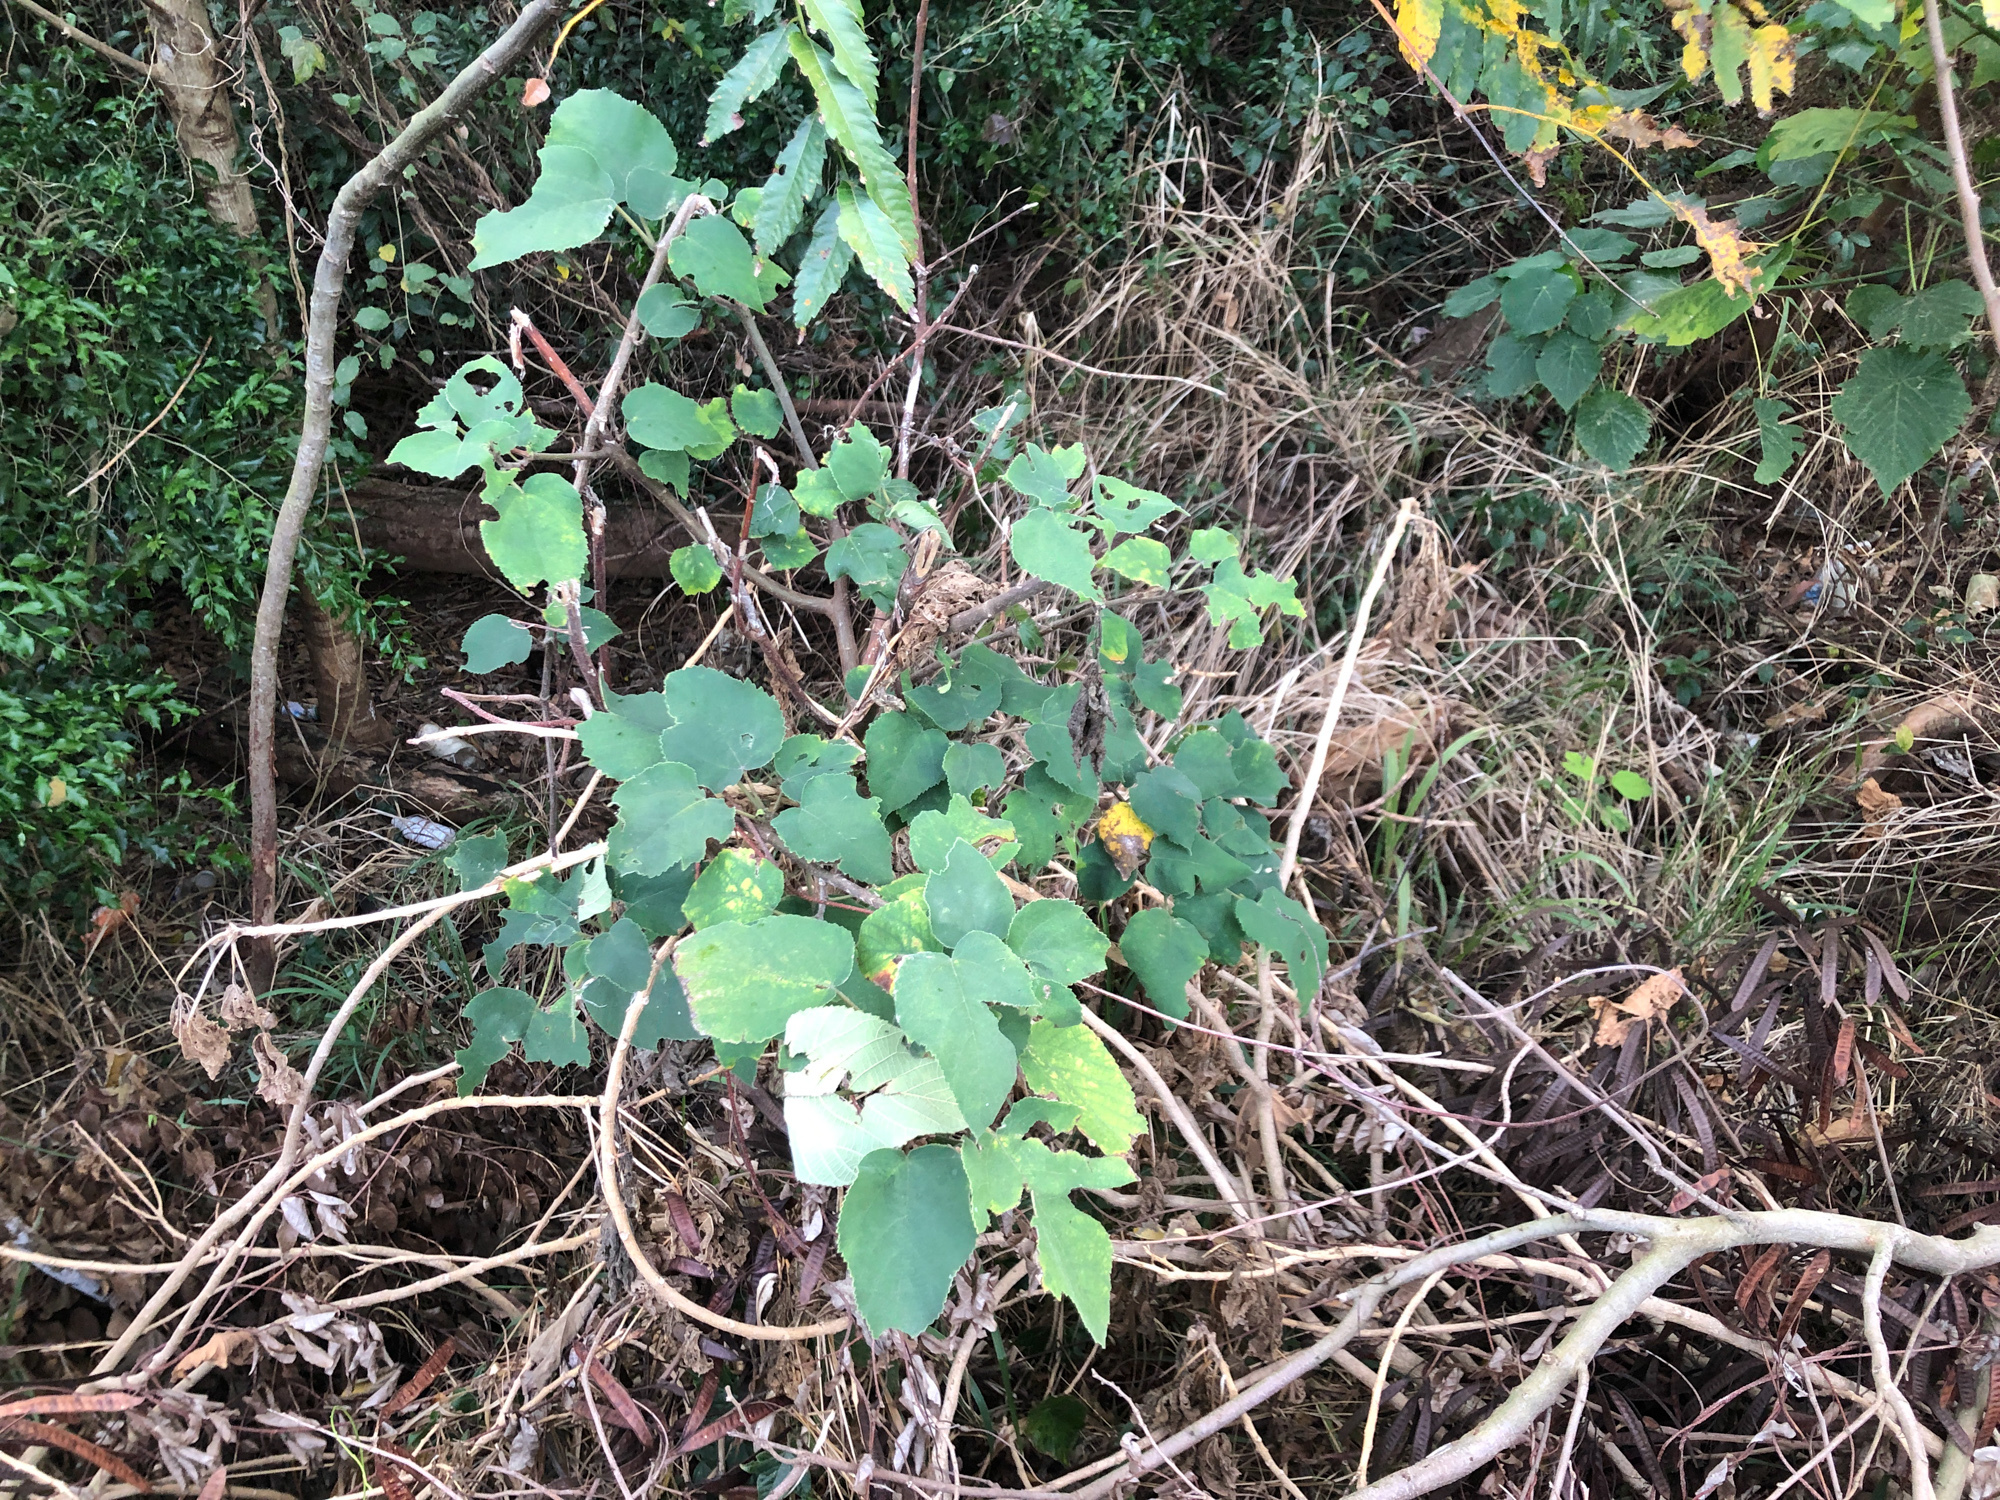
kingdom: Plantae
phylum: Tracheophyta
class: Magnoliopsida
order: Rosales
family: Moraceae
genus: Broussonetia
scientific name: Broussonetia papyrifera
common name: Paper mulberry
